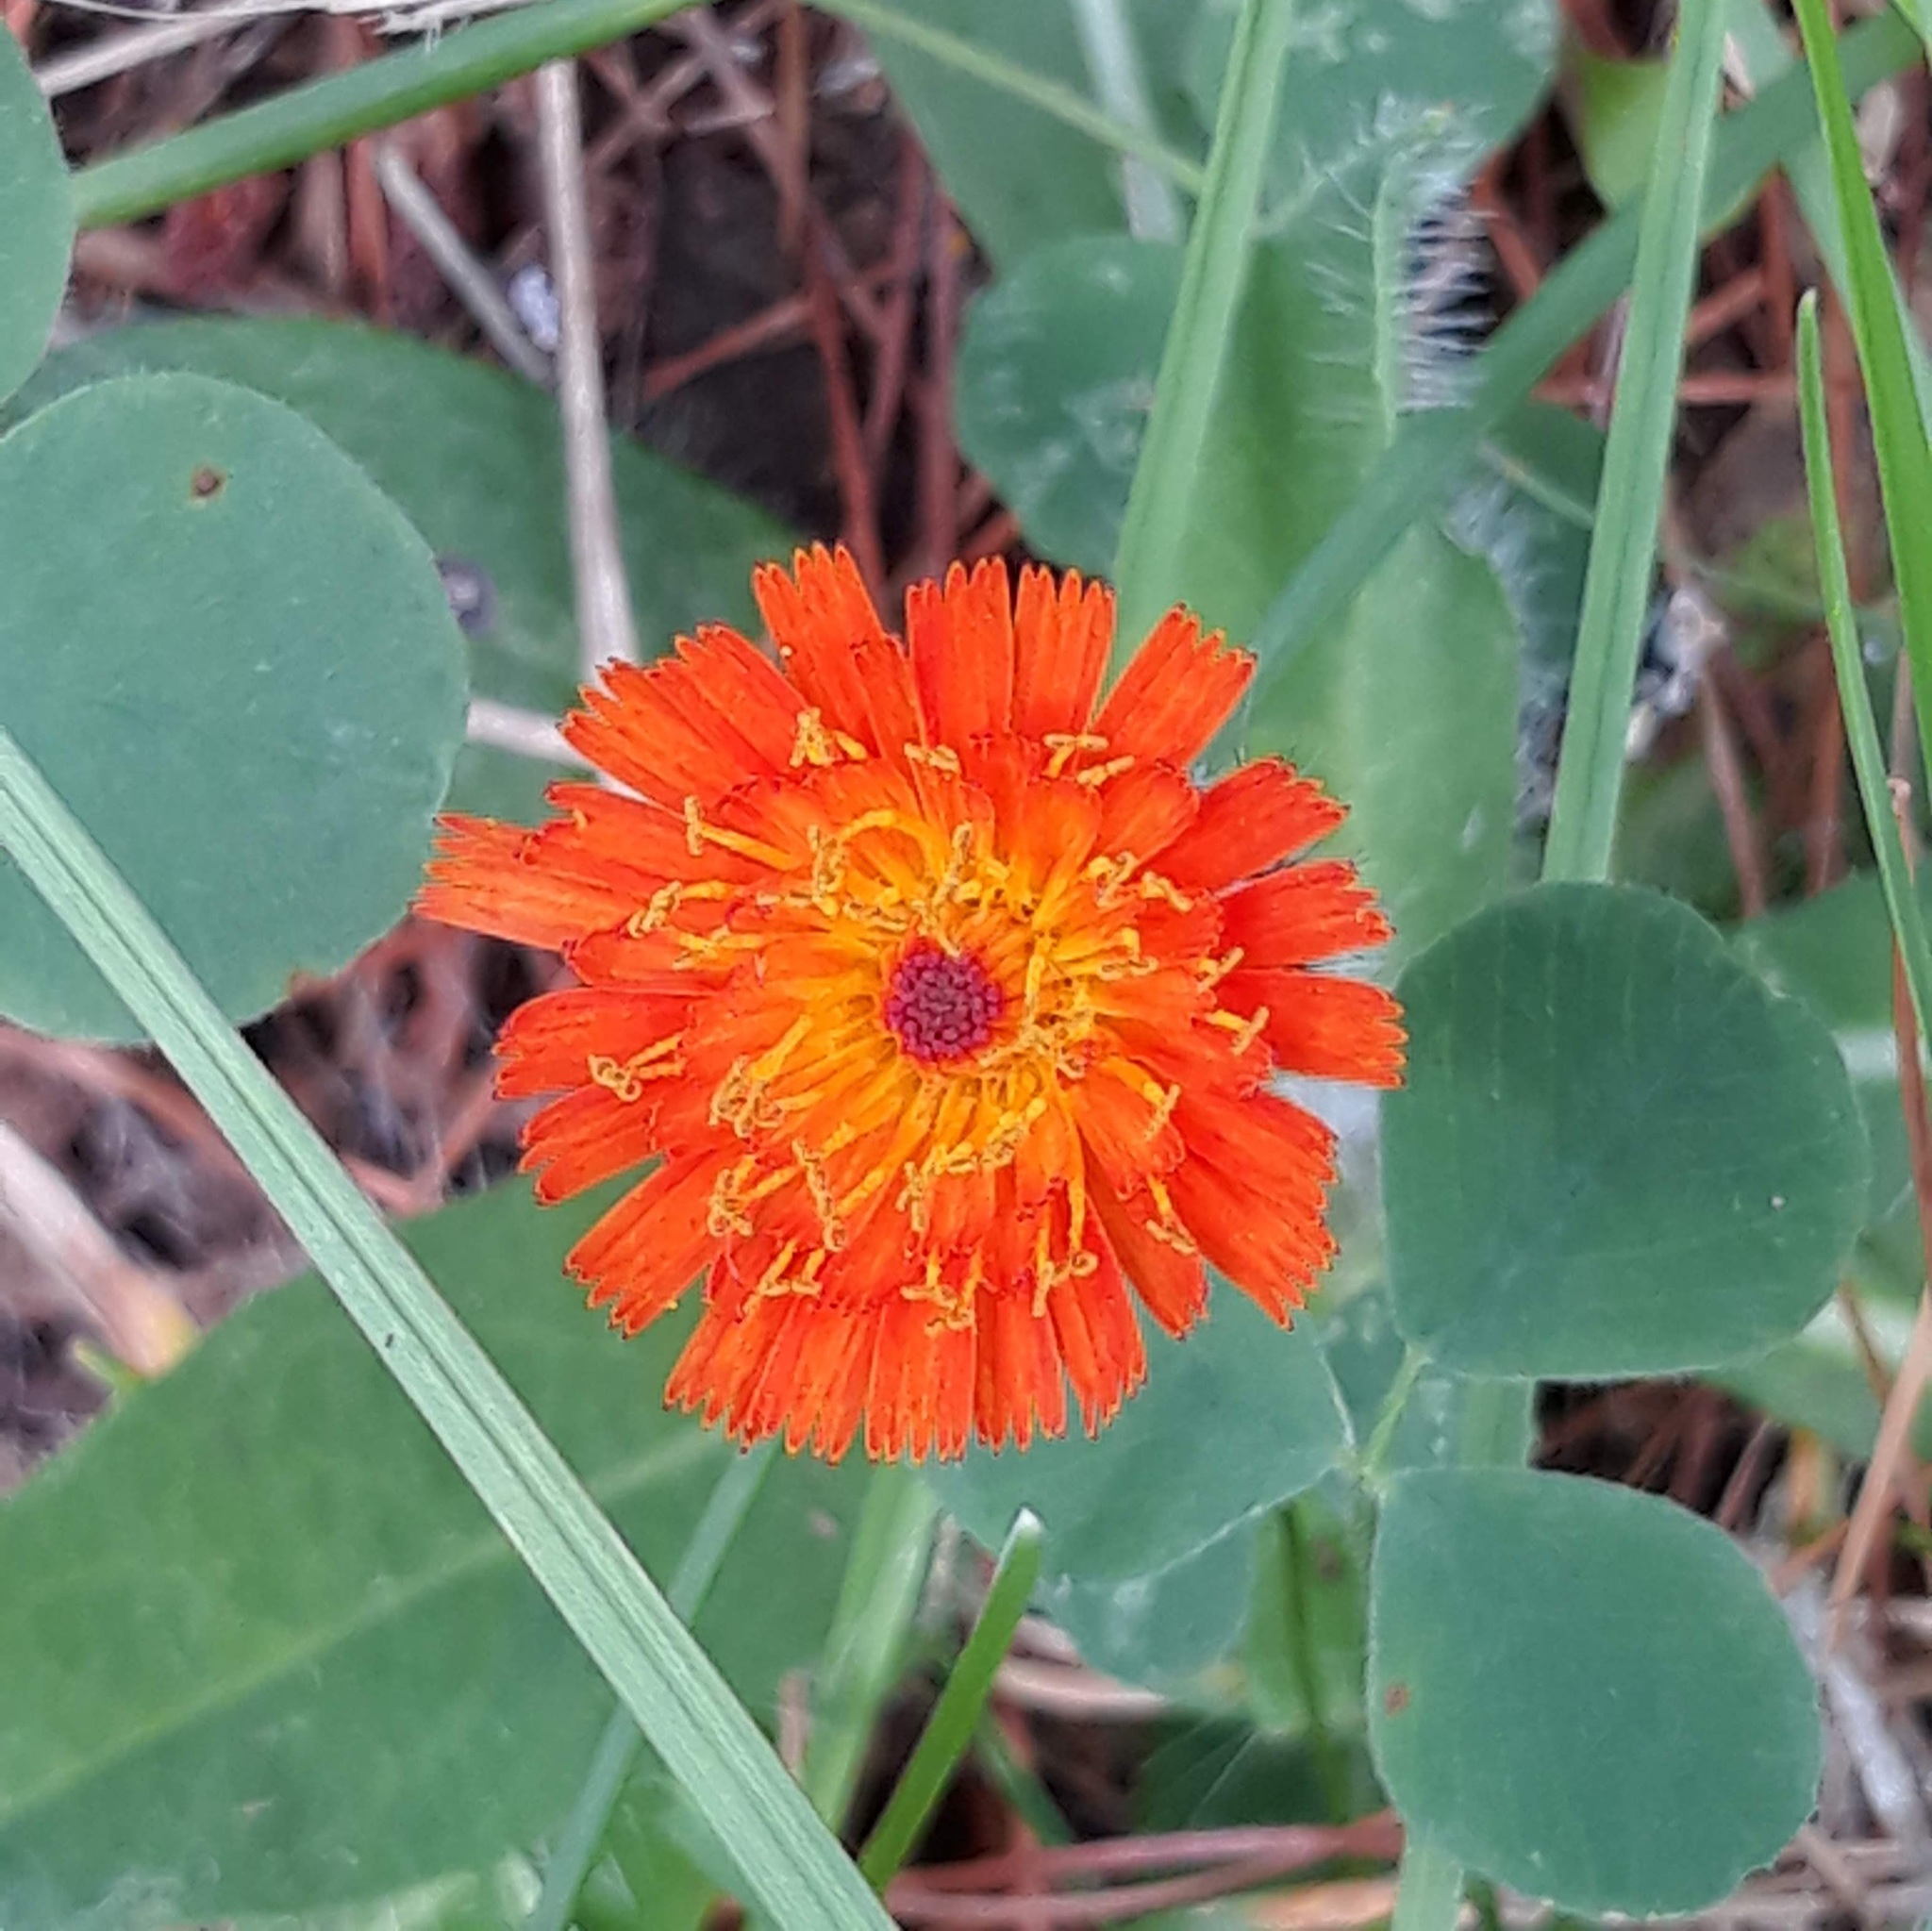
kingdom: Plantae
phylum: Tracheophyta
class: Magnoliopsida
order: Asterales
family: Asteraceae
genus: Pilosella
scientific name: Pilosella aurantiaca
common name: Fox-and-cubs
